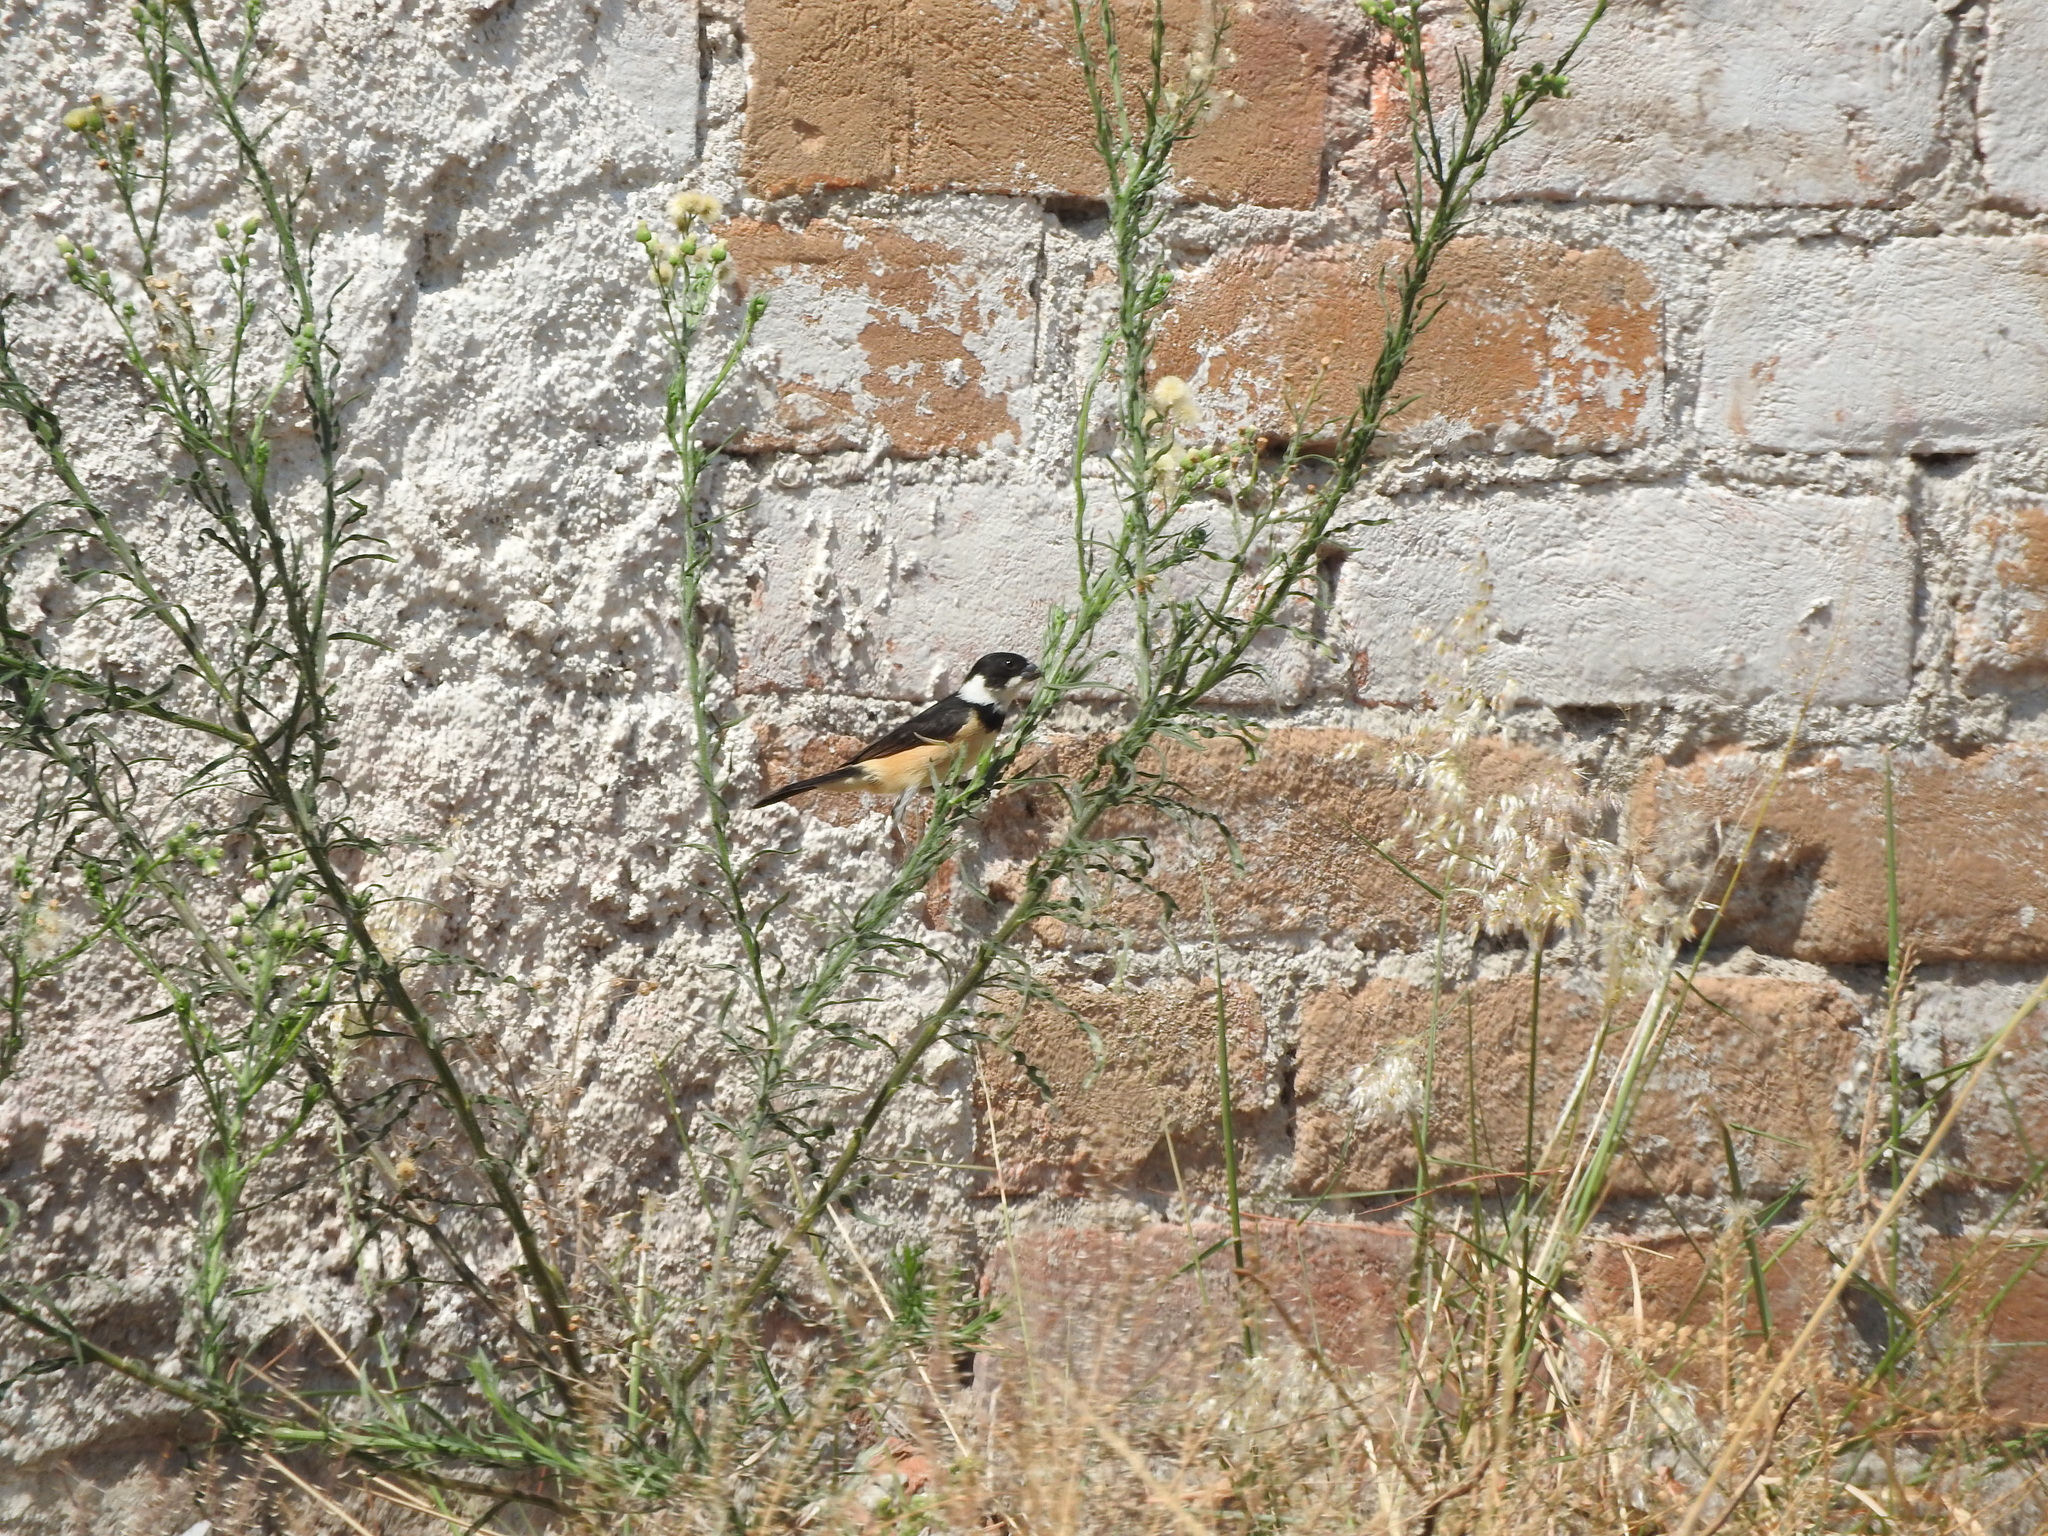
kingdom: Animalia
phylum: Chordata
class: Aves
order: Passeriformes
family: Thraupidae
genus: Sporophila
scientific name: Sporophila torqueola
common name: White-collared seedeater
